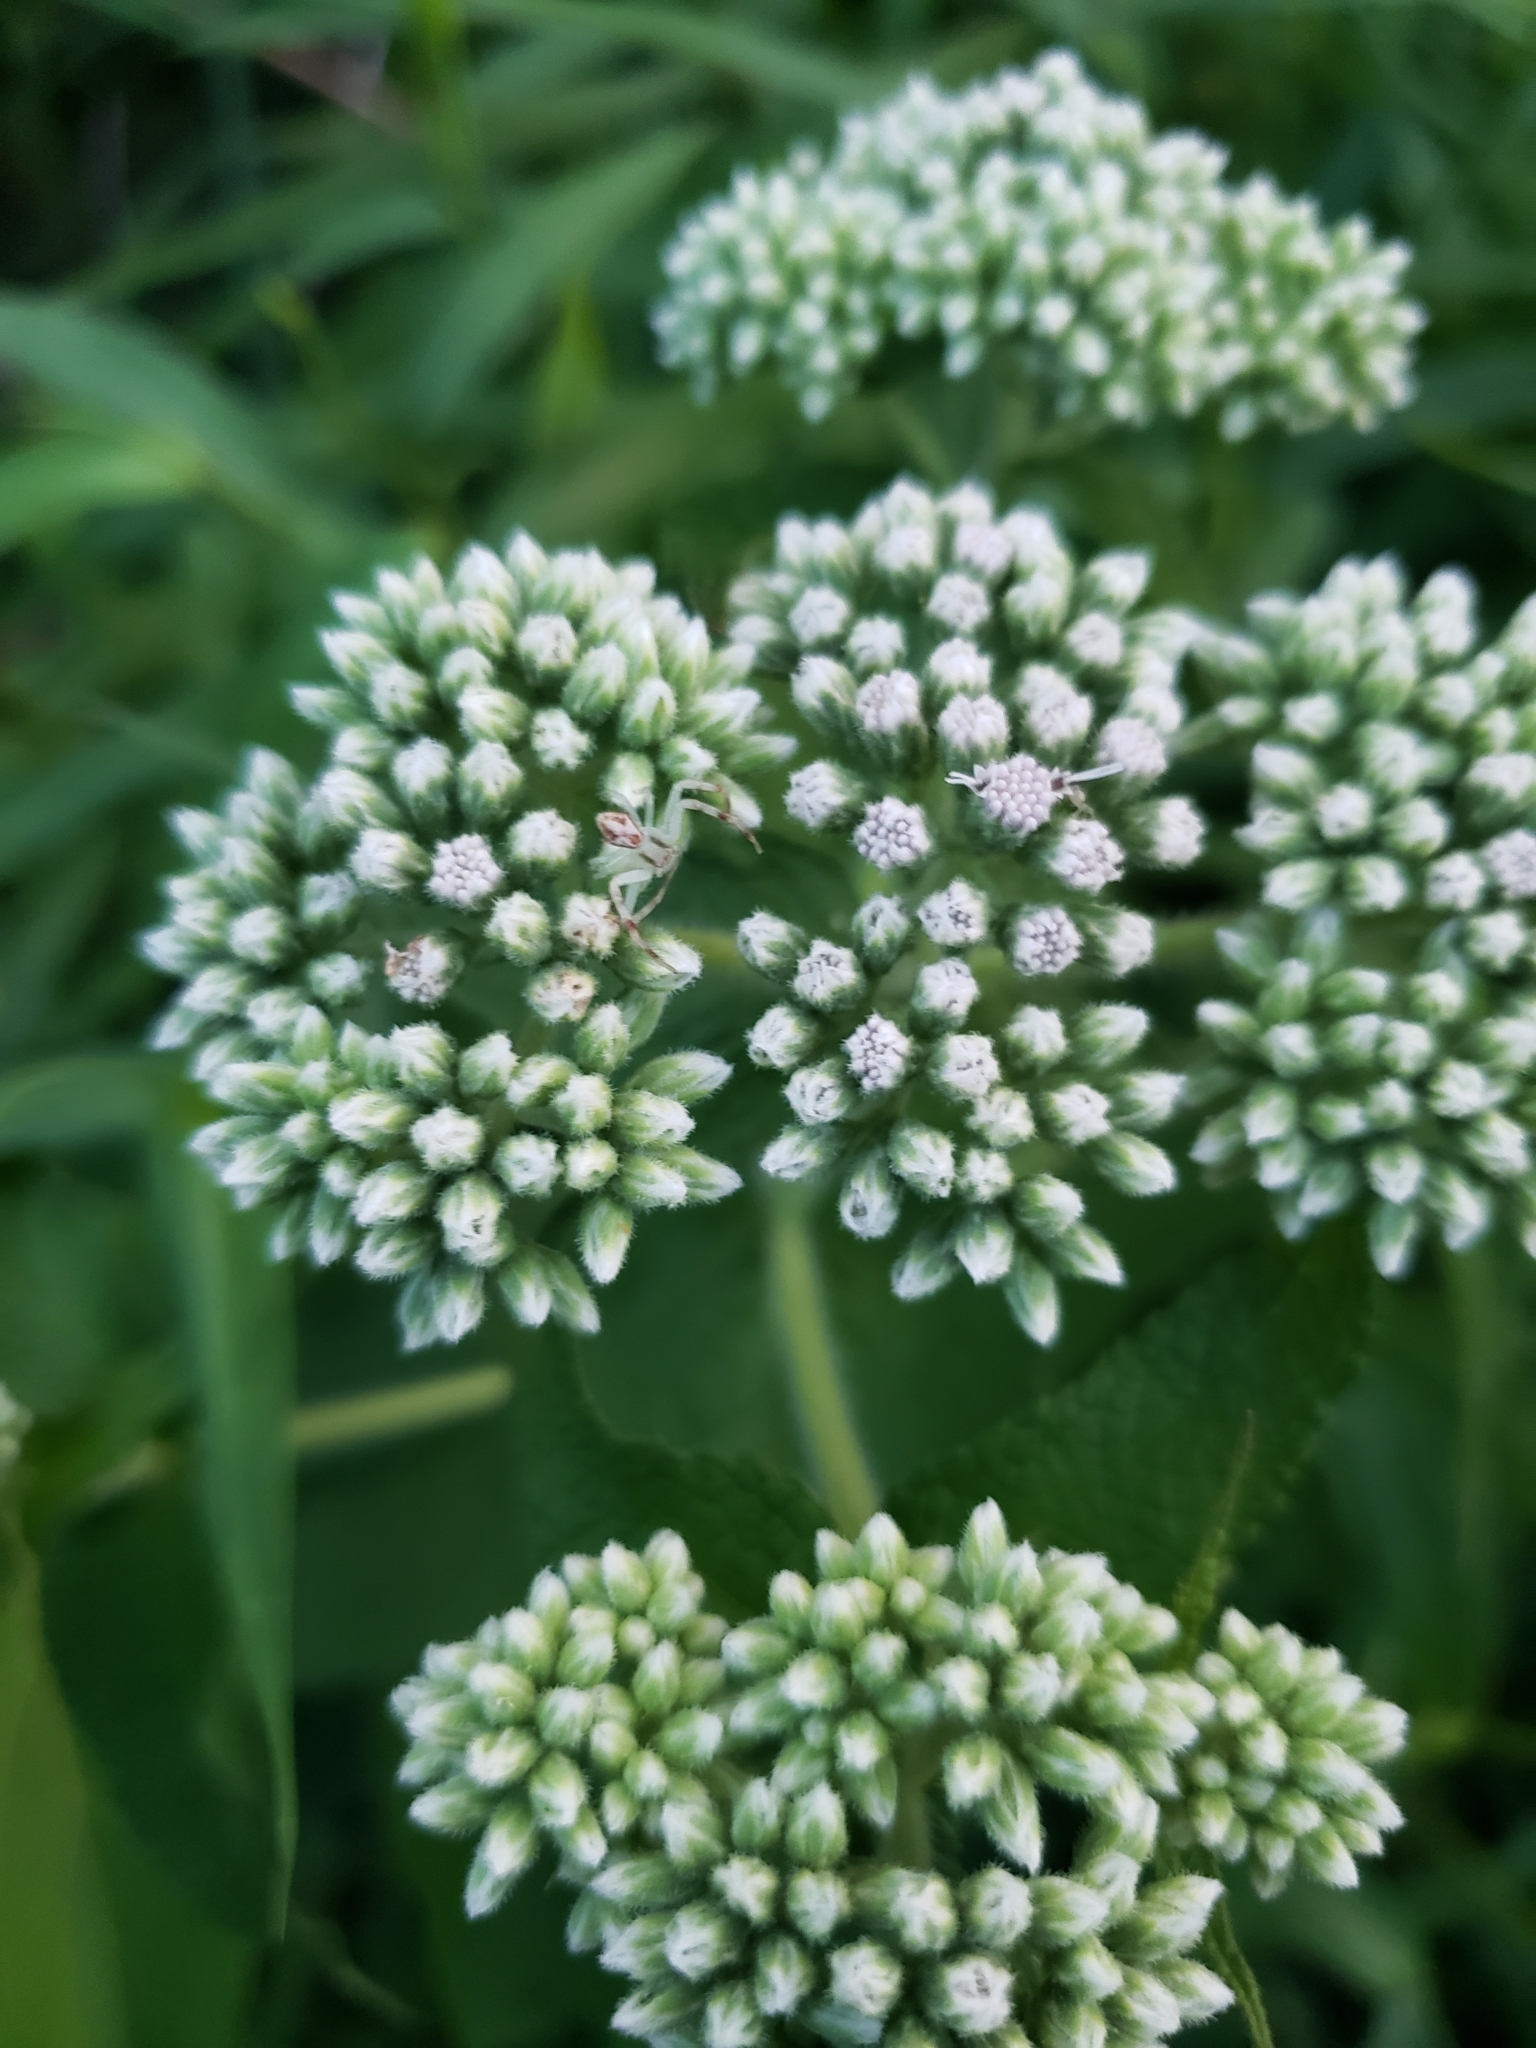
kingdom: Plantae
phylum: Tracheophyta
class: Magnoliopsida
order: Asterales
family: Asteraceae
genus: Eupatorium
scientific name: Eupatorium perfoliatum
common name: Boneset
